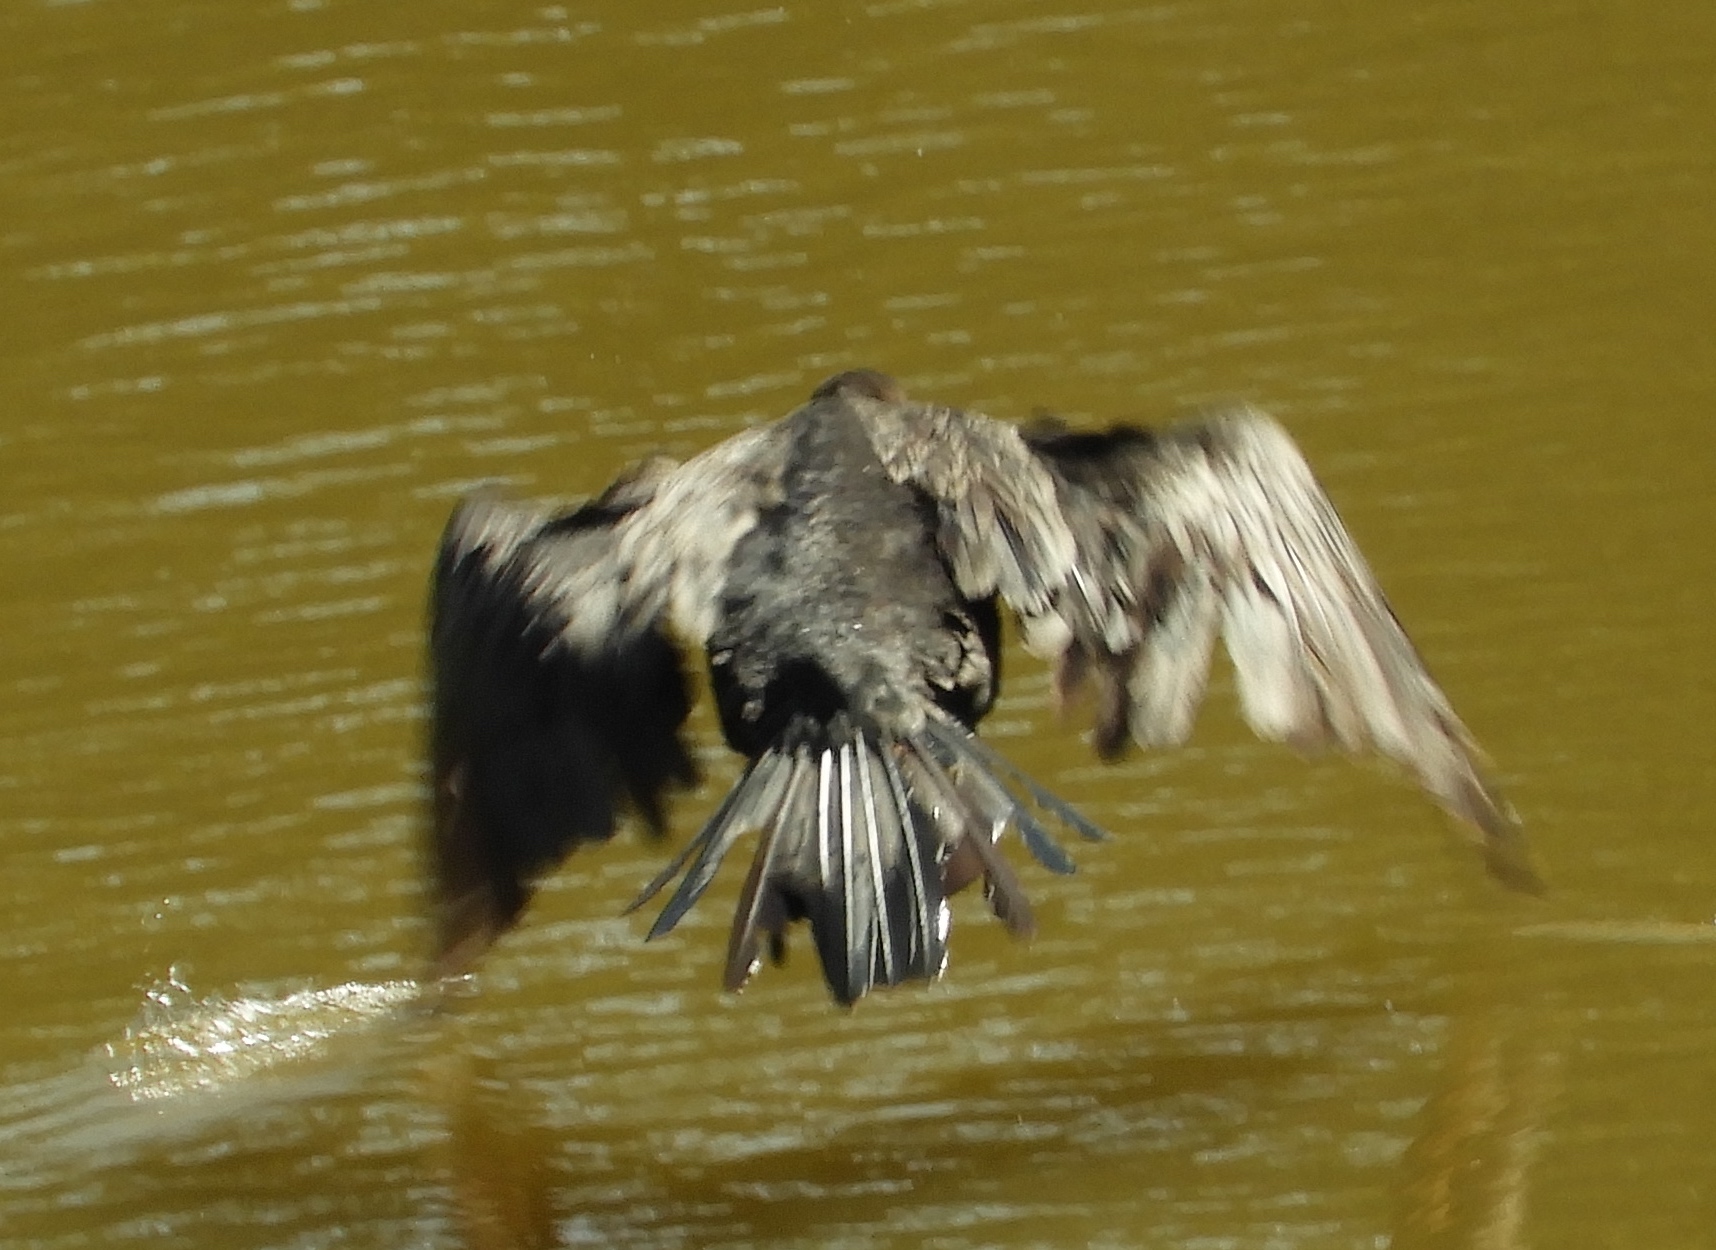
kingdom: Animalia
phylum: Chordata
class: Aves
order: Suliformes
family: Phalacrocoracidae
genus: Phalacrocorax
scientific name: Phalacrocorax brasilianus
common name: Neotropic cormorant
